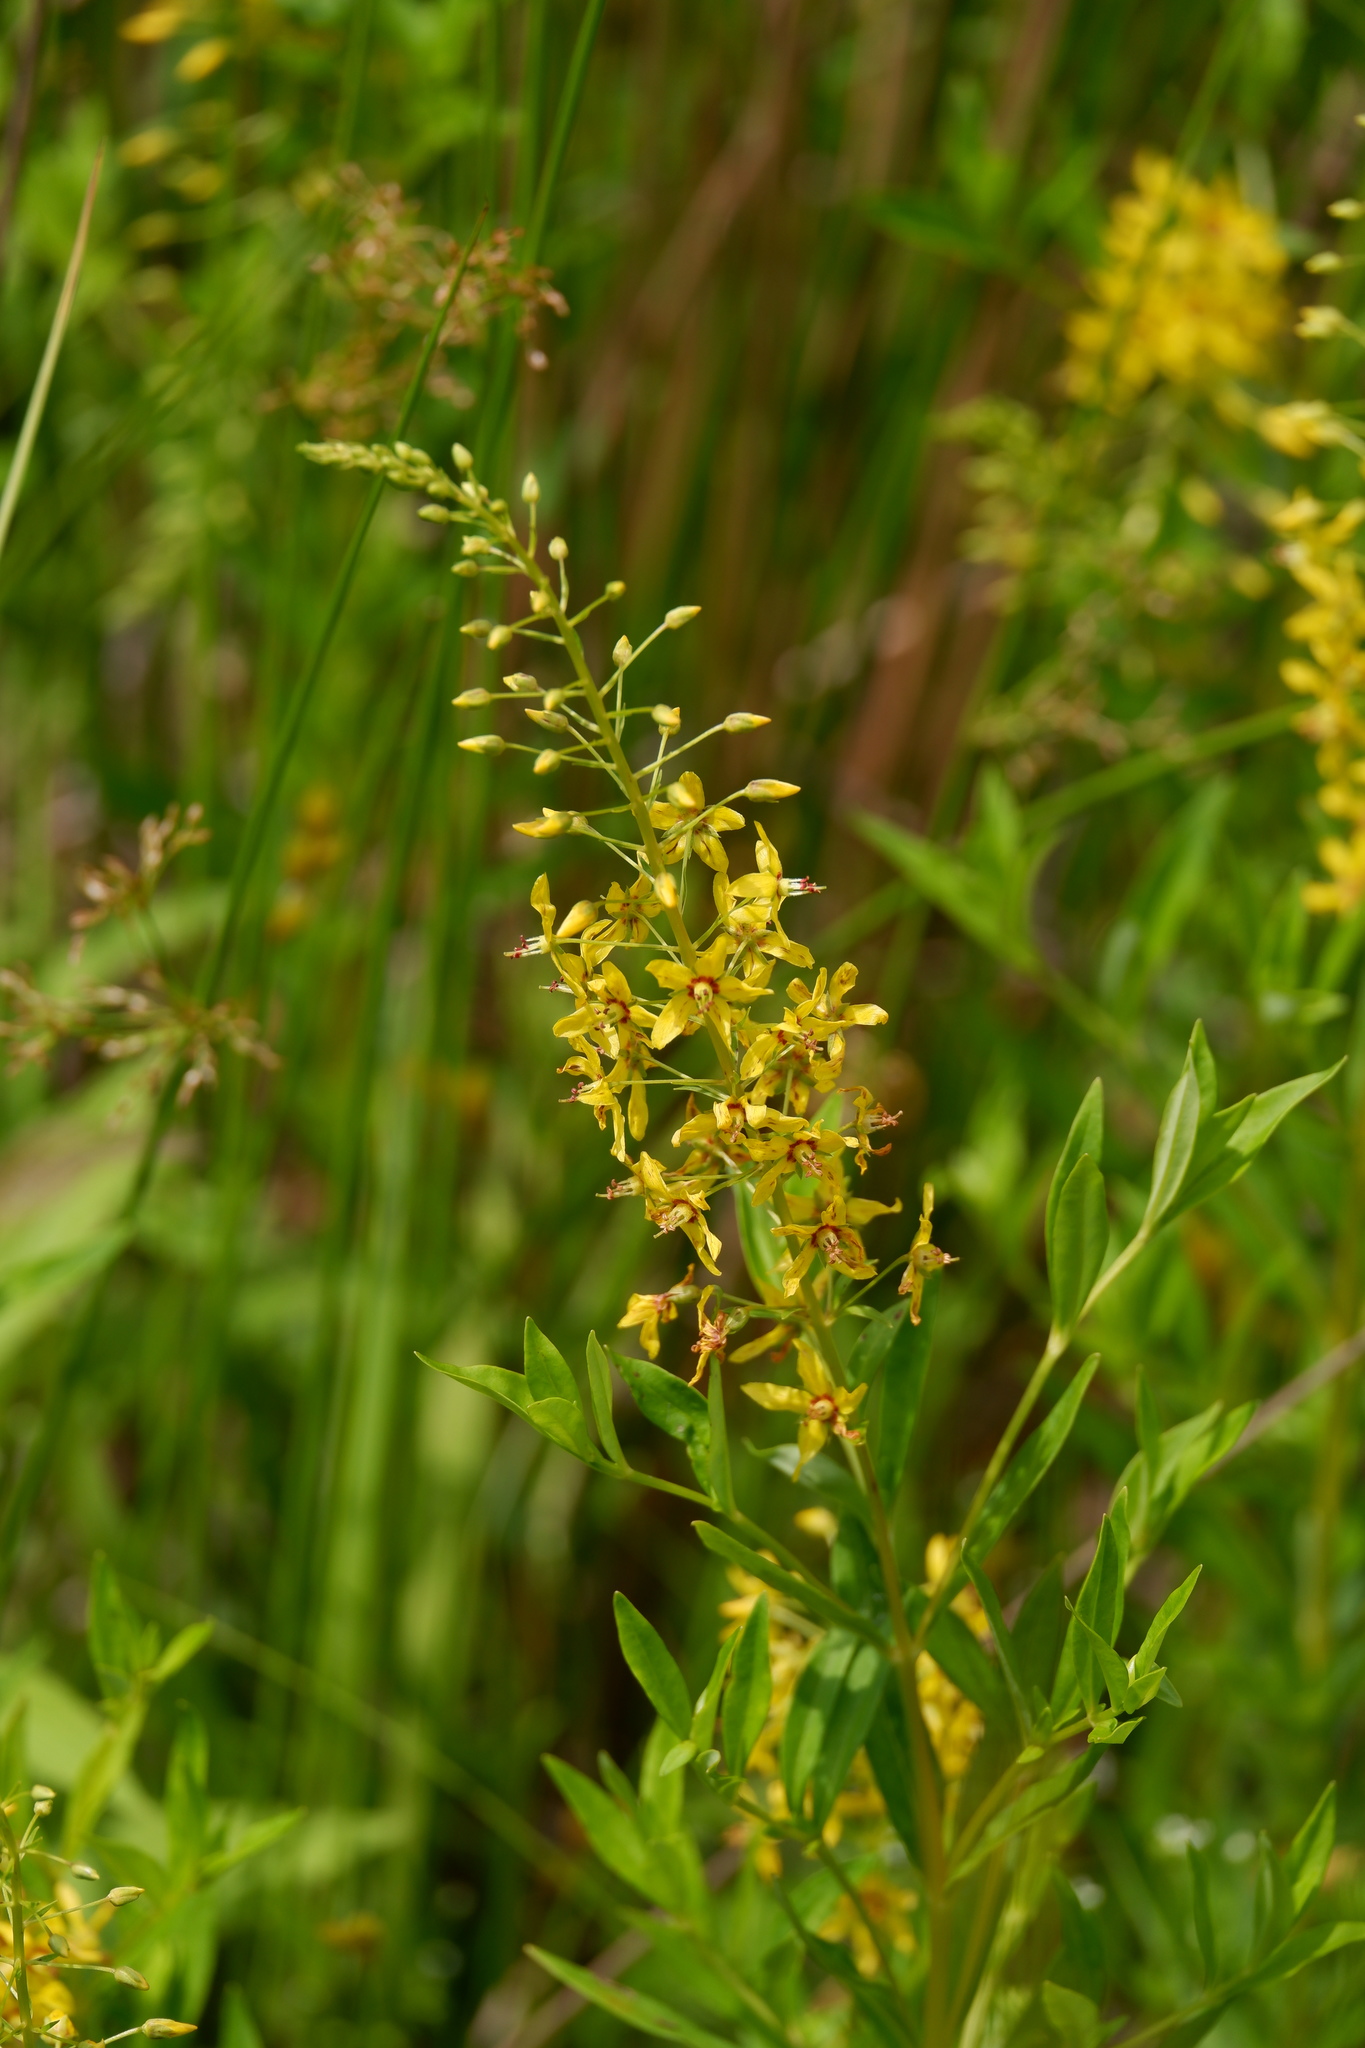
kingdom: Plantae
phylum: Tracheophyta
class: Magnoliopsida
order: Ericales
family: Primulaceae
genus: Lysimachia
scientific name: Lysimachia terrestris
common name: Lake loosestrife
